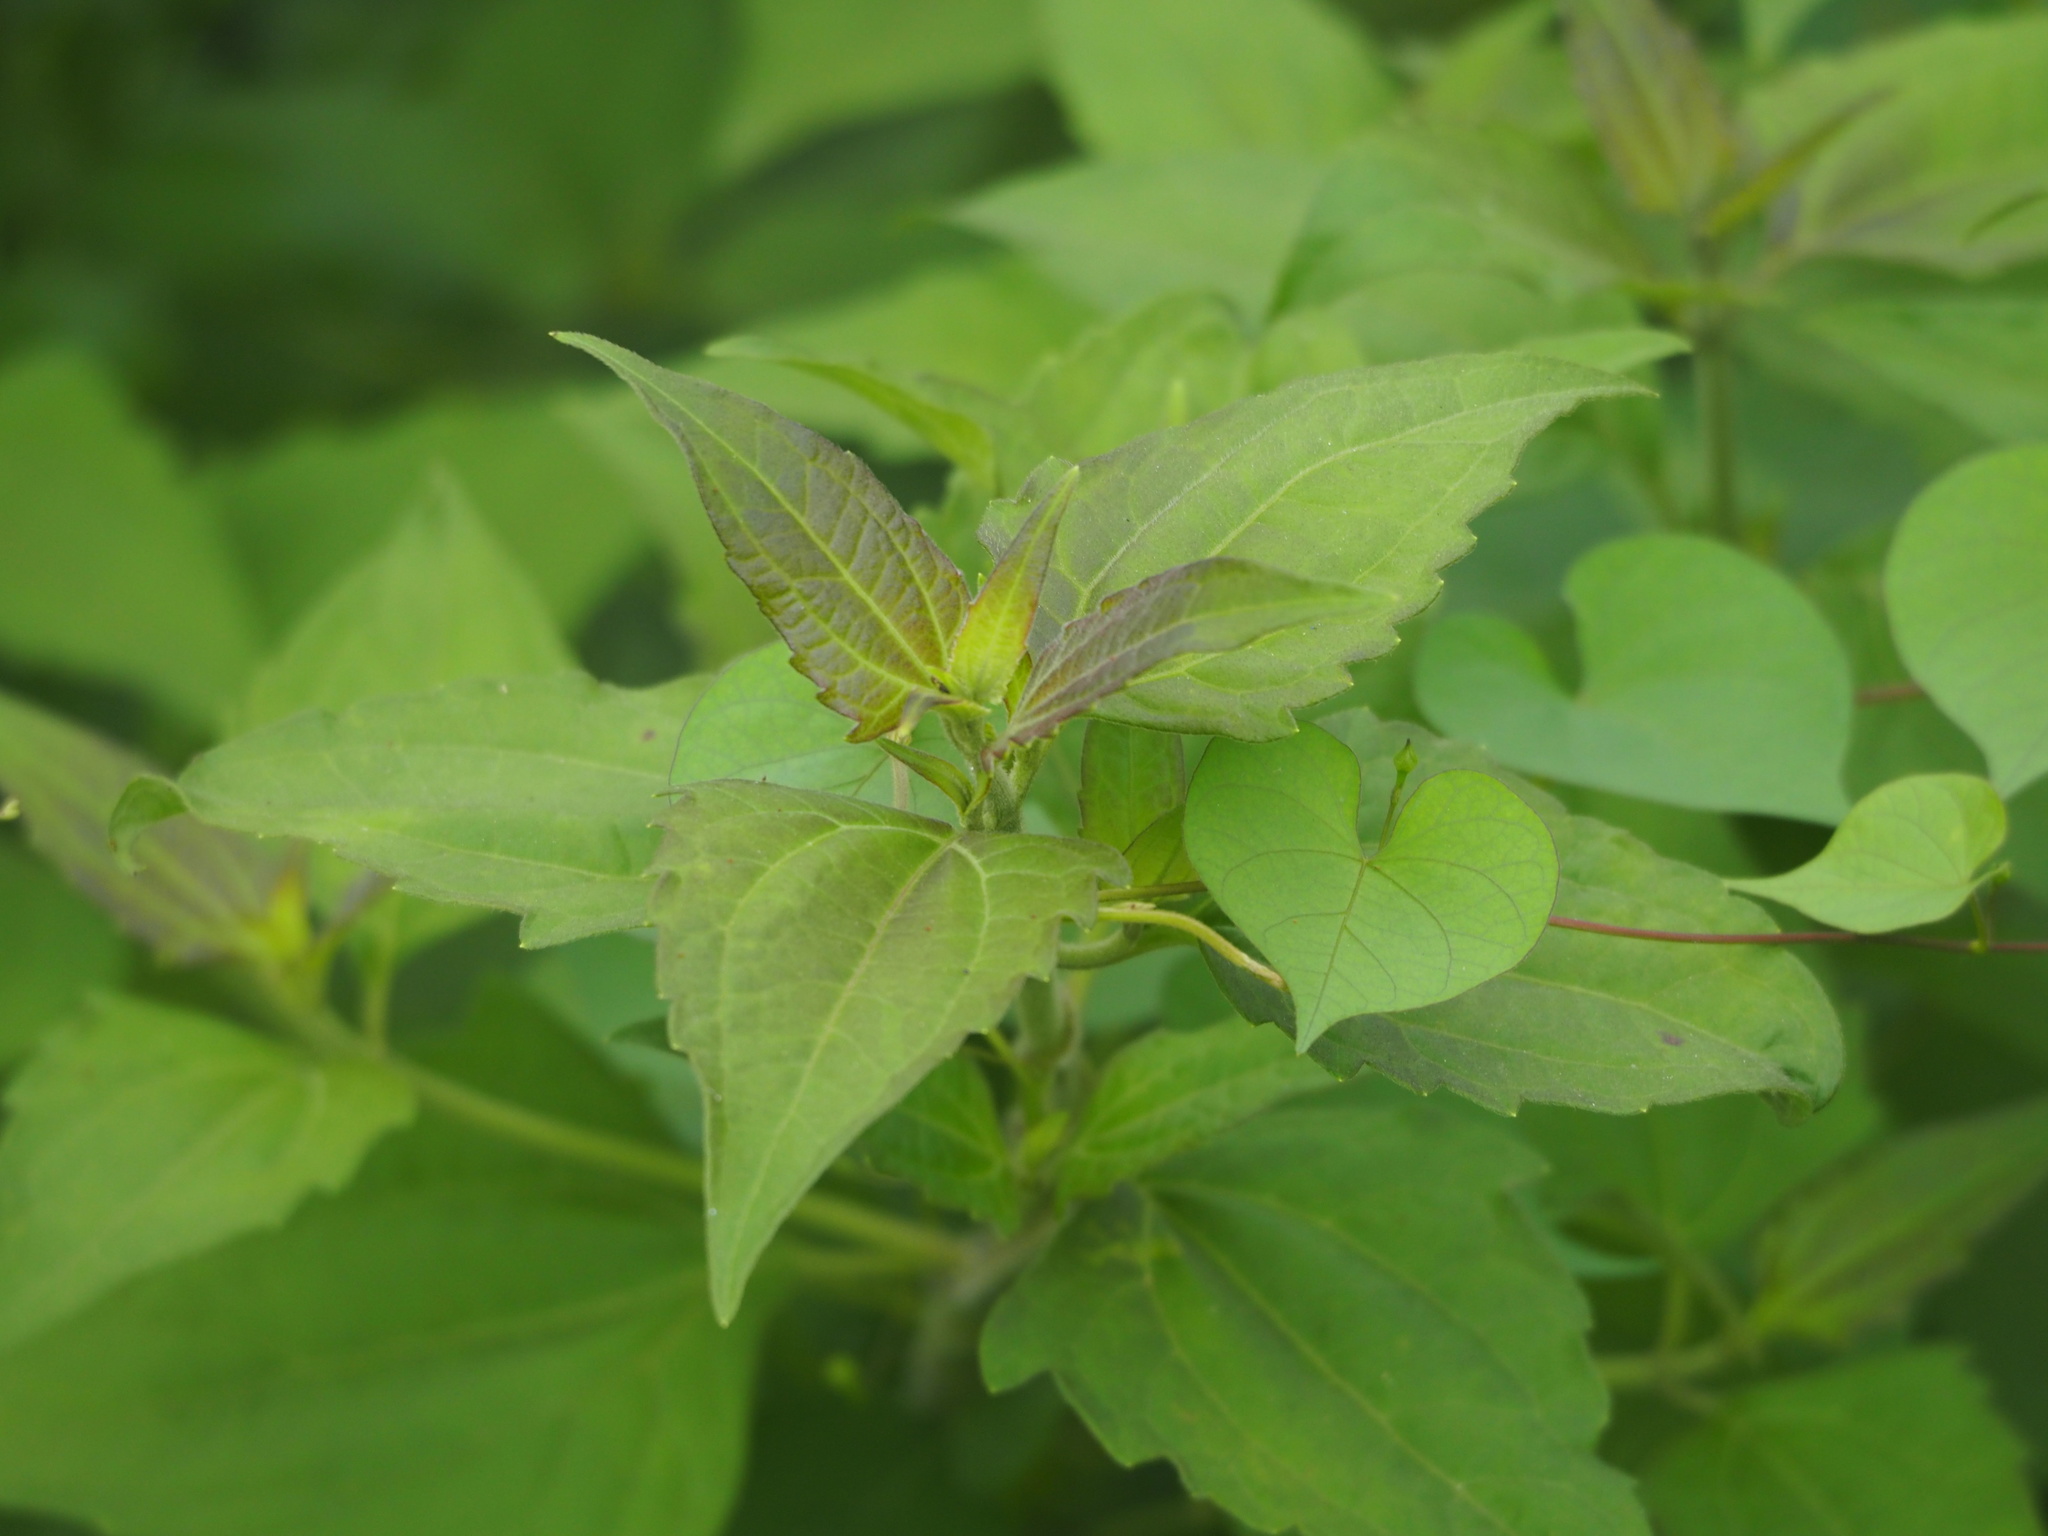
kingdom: Plantae
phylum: Tracheophyta
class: Magnoliopsida
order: Asterales
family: Asteraceae
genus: Chromolaena
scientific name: Chromolaena odorata
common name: Siamweed
